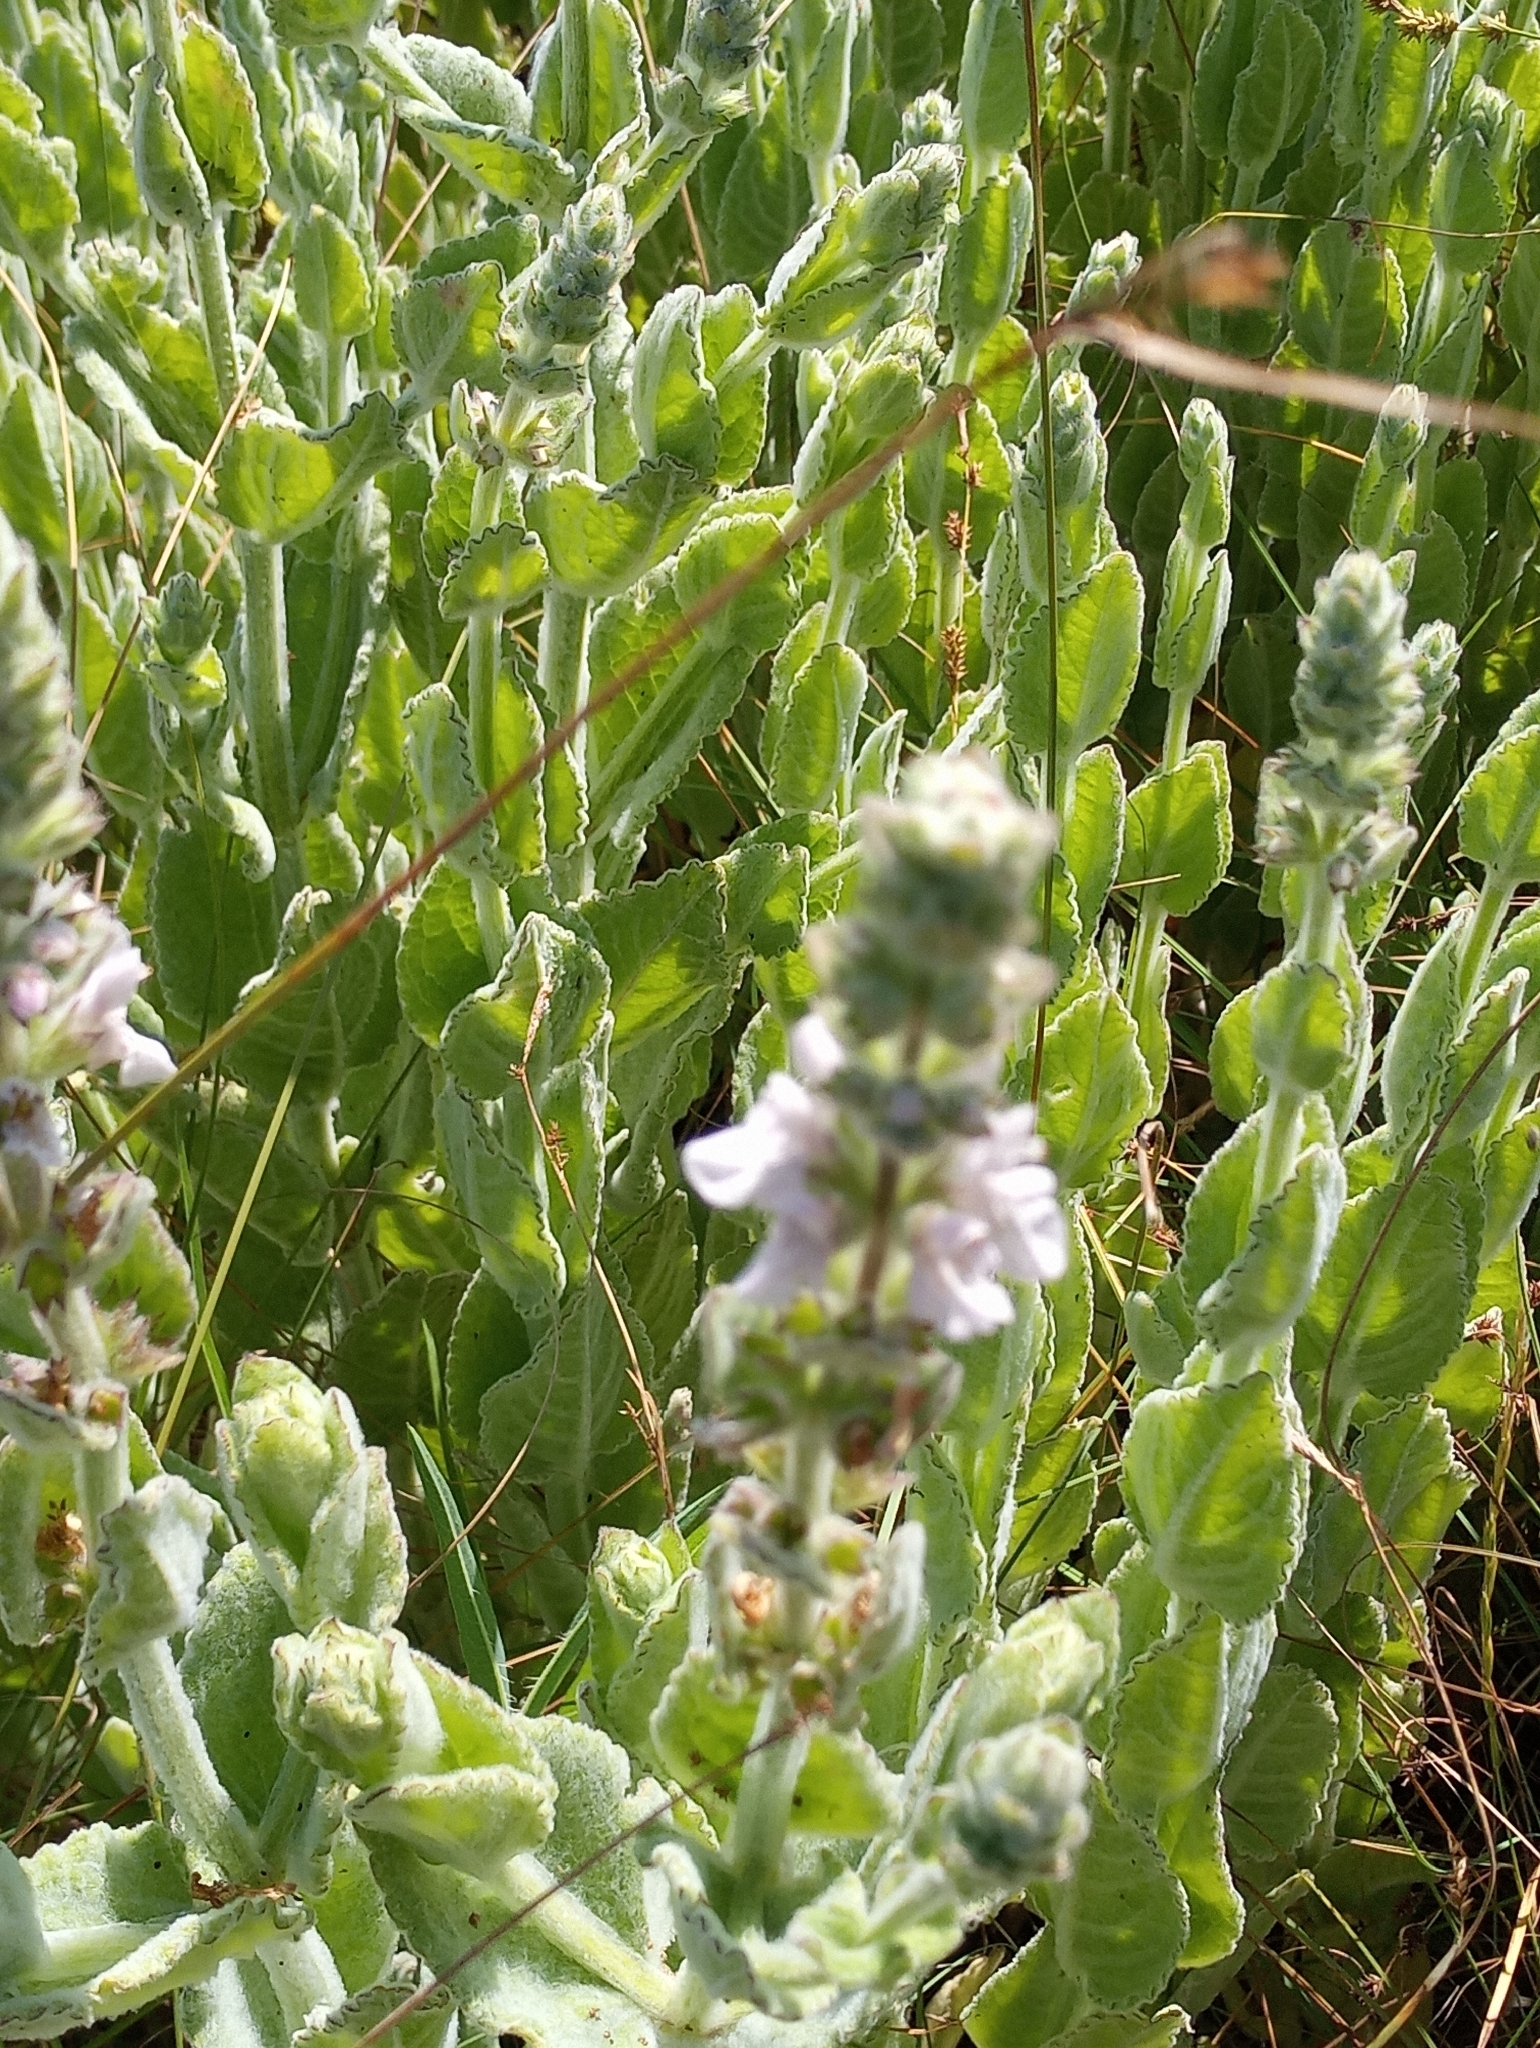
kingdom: Plantae
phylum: Tracheophyta
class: Magnoliopsida
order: Lamiales
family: Lamiaceae
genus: Stachys
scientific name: Stachys albens
